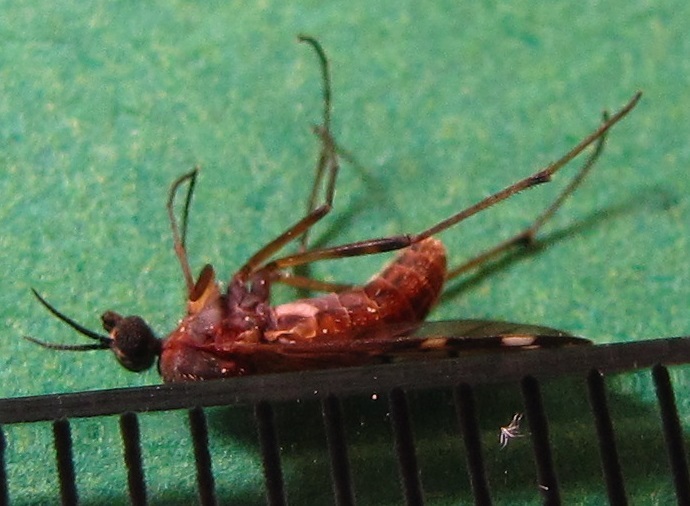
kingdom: Animalia
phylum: Arthropoda
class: Insecta
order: Diptera
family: Anisopodidae
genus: Sylvicola
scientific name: Sylvicola alternata
